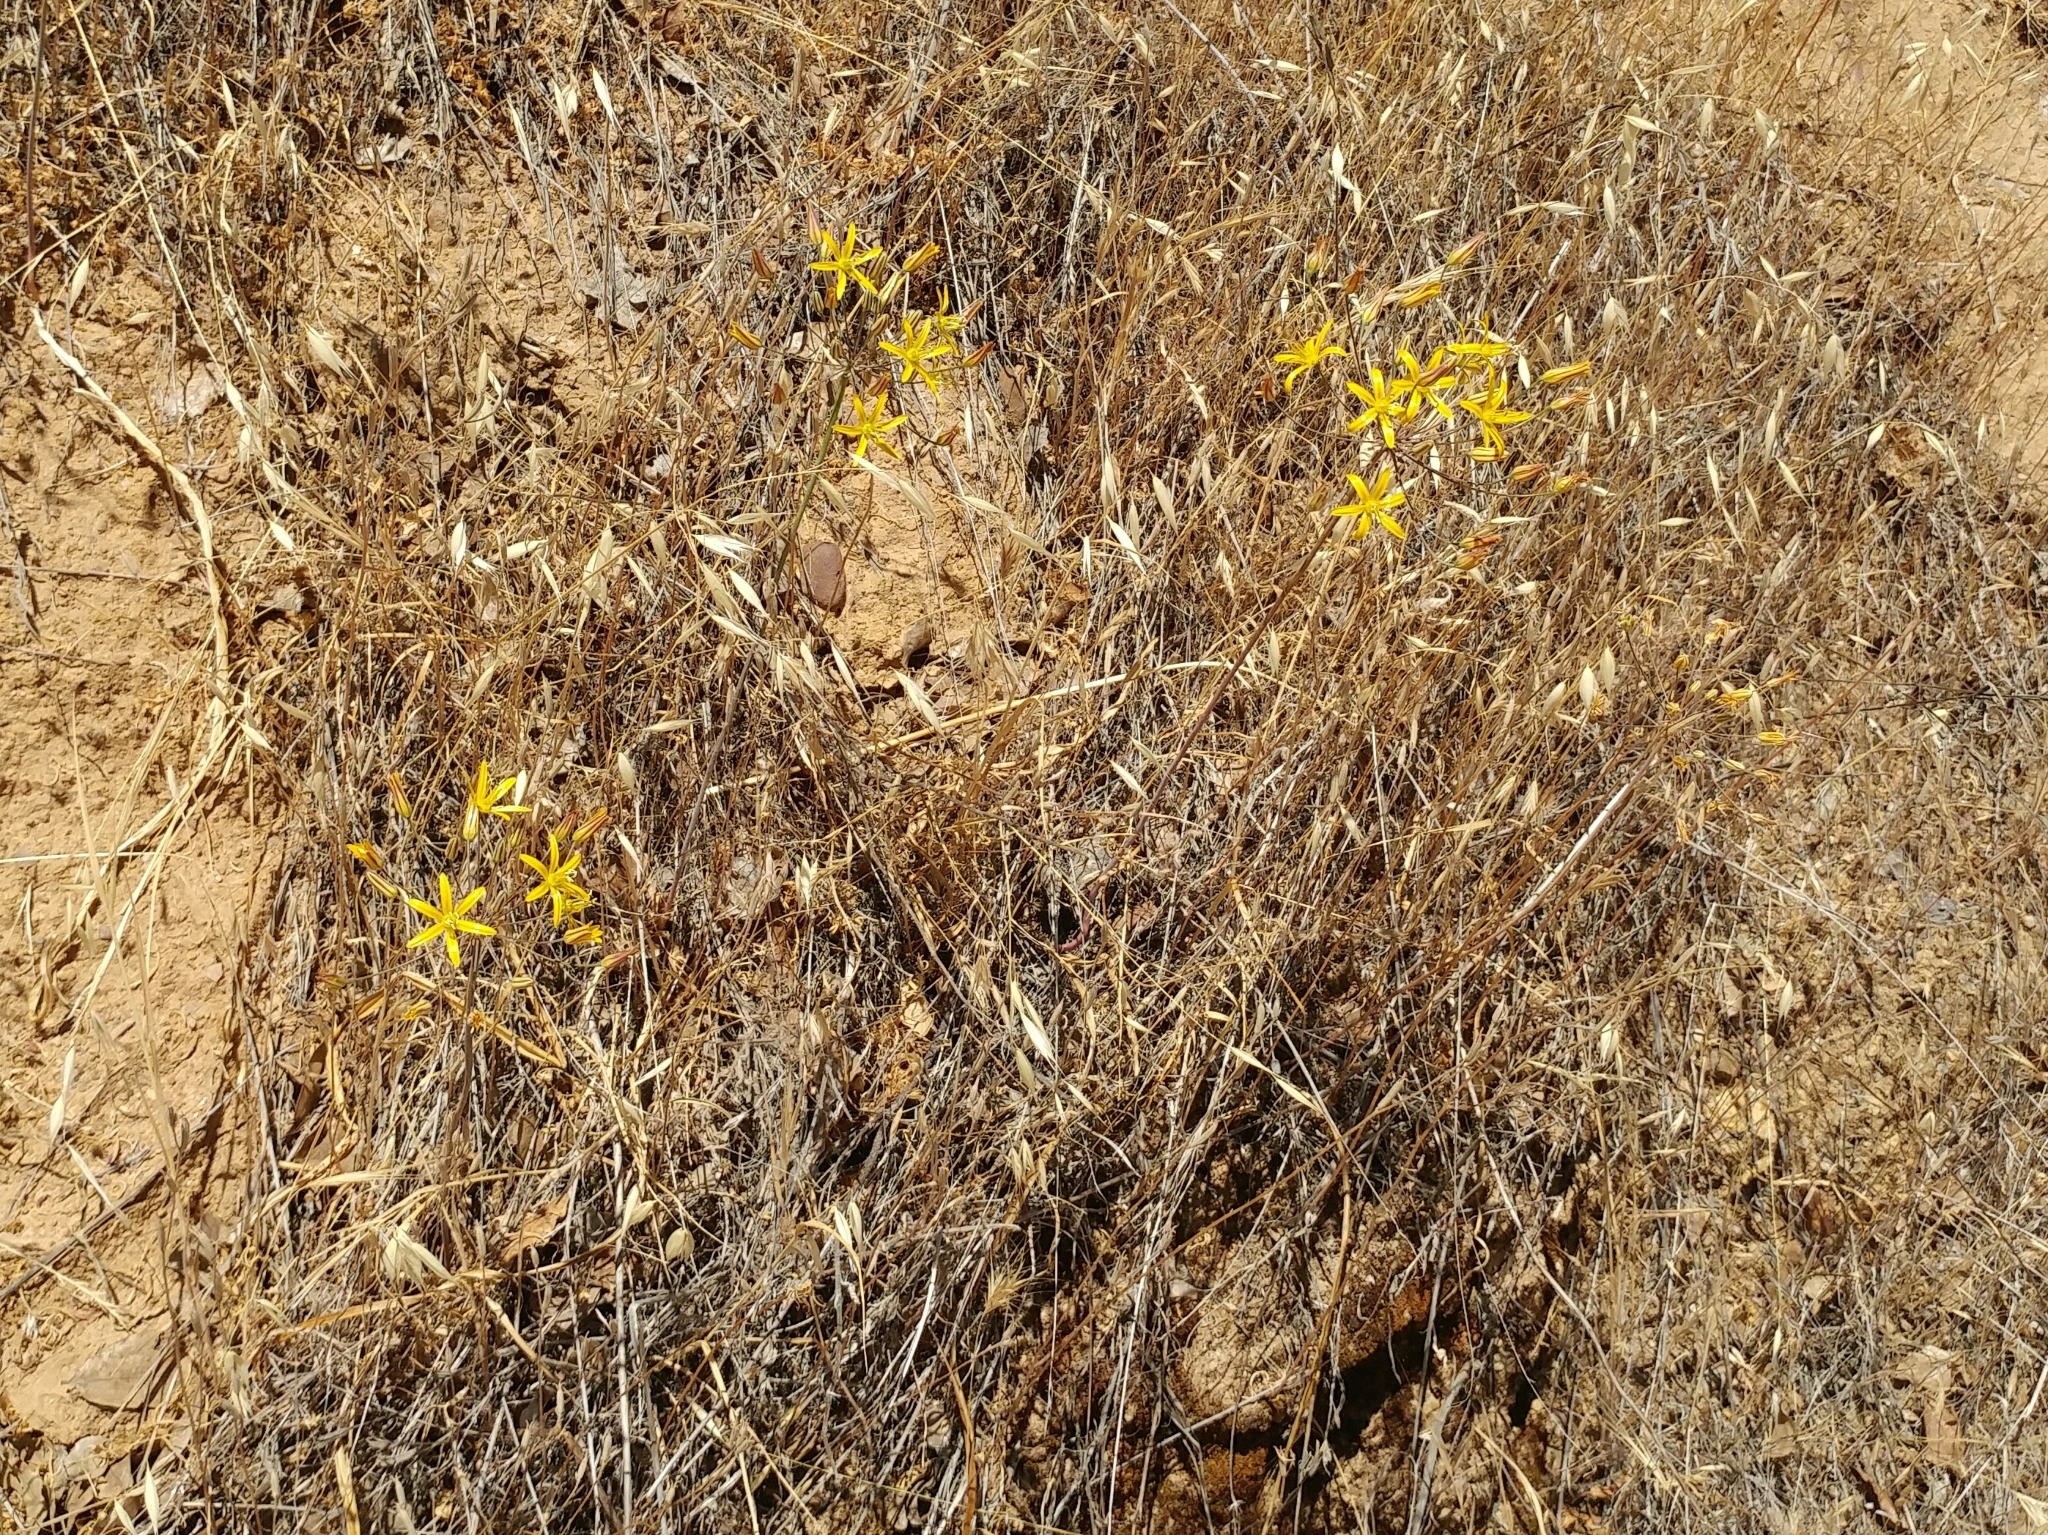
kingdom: Plantae
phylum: Tracheophyta
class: Liliopsida
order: Asparagales
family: Asparagaceae
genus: Bloomeria
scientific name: Bloomeria crocea
